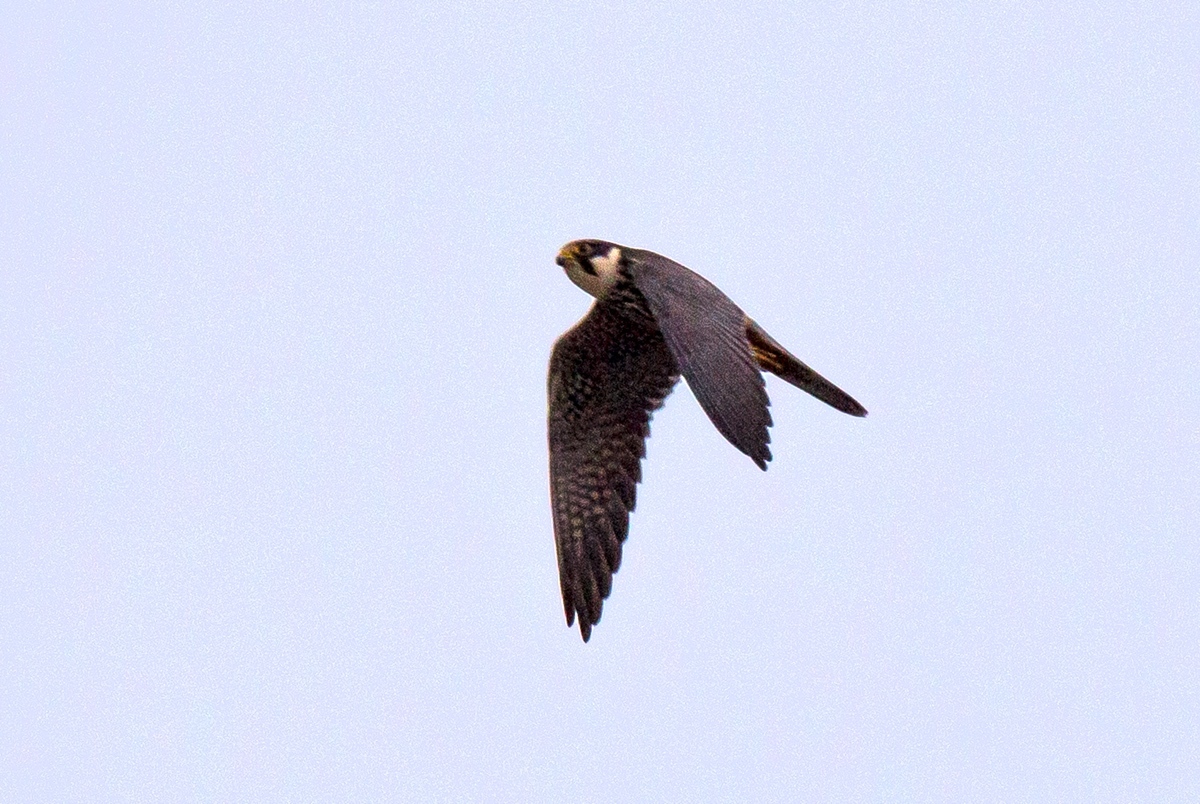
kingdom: Animalia
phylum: Chordata
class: Aves
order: Falconiformes
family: Falconidae
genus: Falco
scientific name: Falco subbuteo
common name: Eurasian hobby
